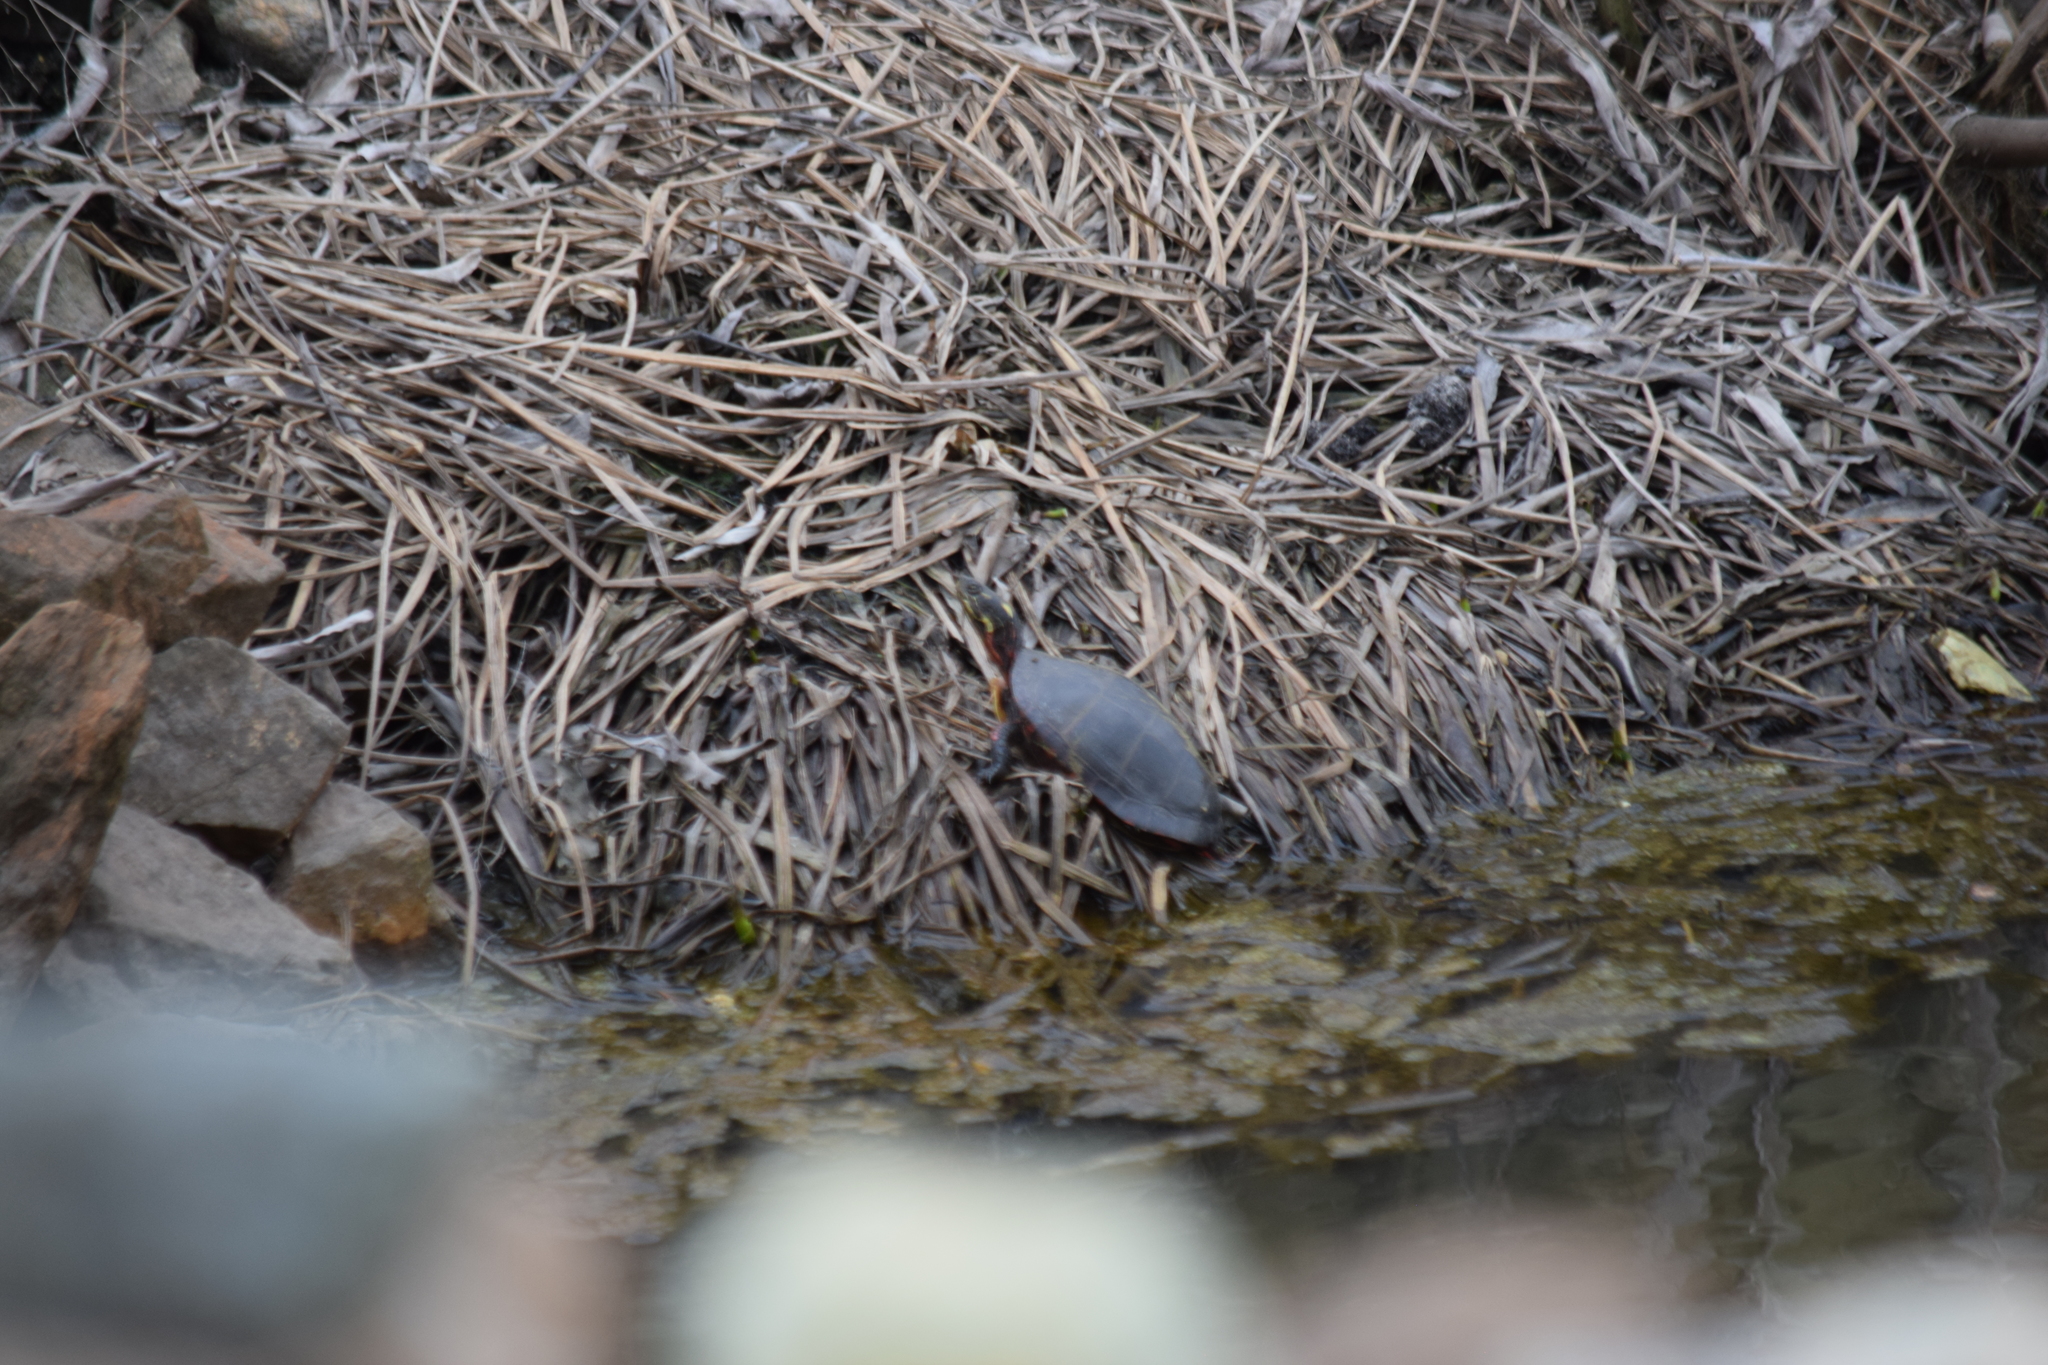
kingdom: Animalia
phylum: Chordata
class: Testudines
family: Emydidae
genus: Chrysemys
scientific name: Chrysemys picta
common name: Painted turtle
